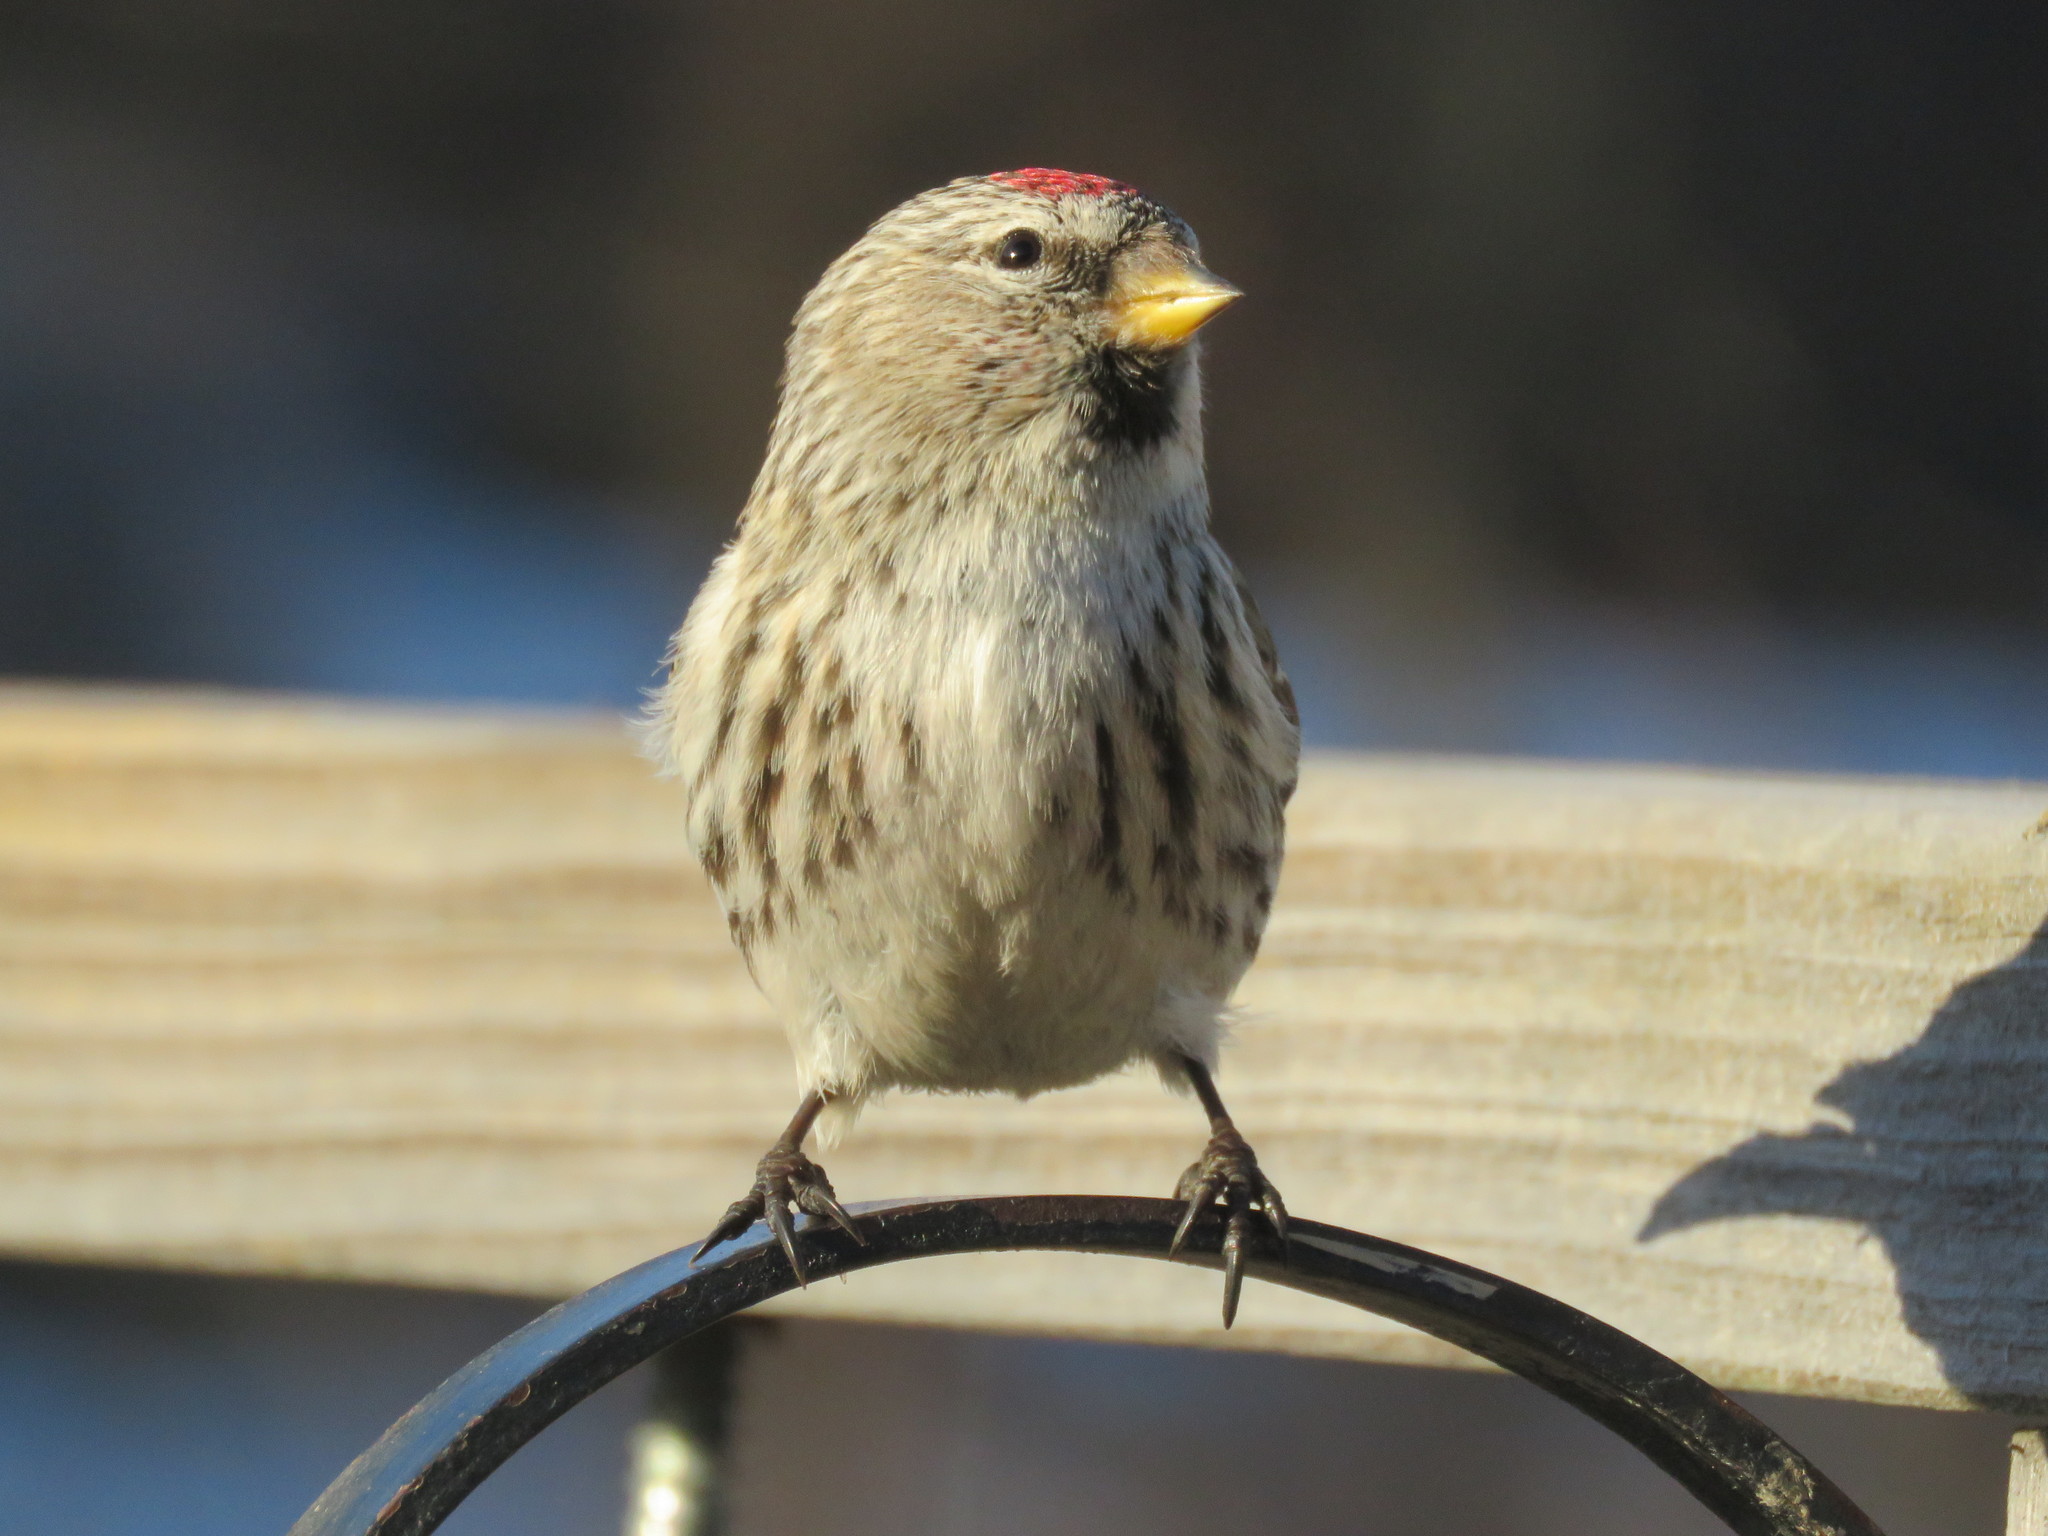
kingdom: Animalia
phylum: Chordata
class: Aves
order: Passeriformes
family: Fringillidae
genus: Acanthis
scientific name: Acanthis flammea
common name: Common redpoll
